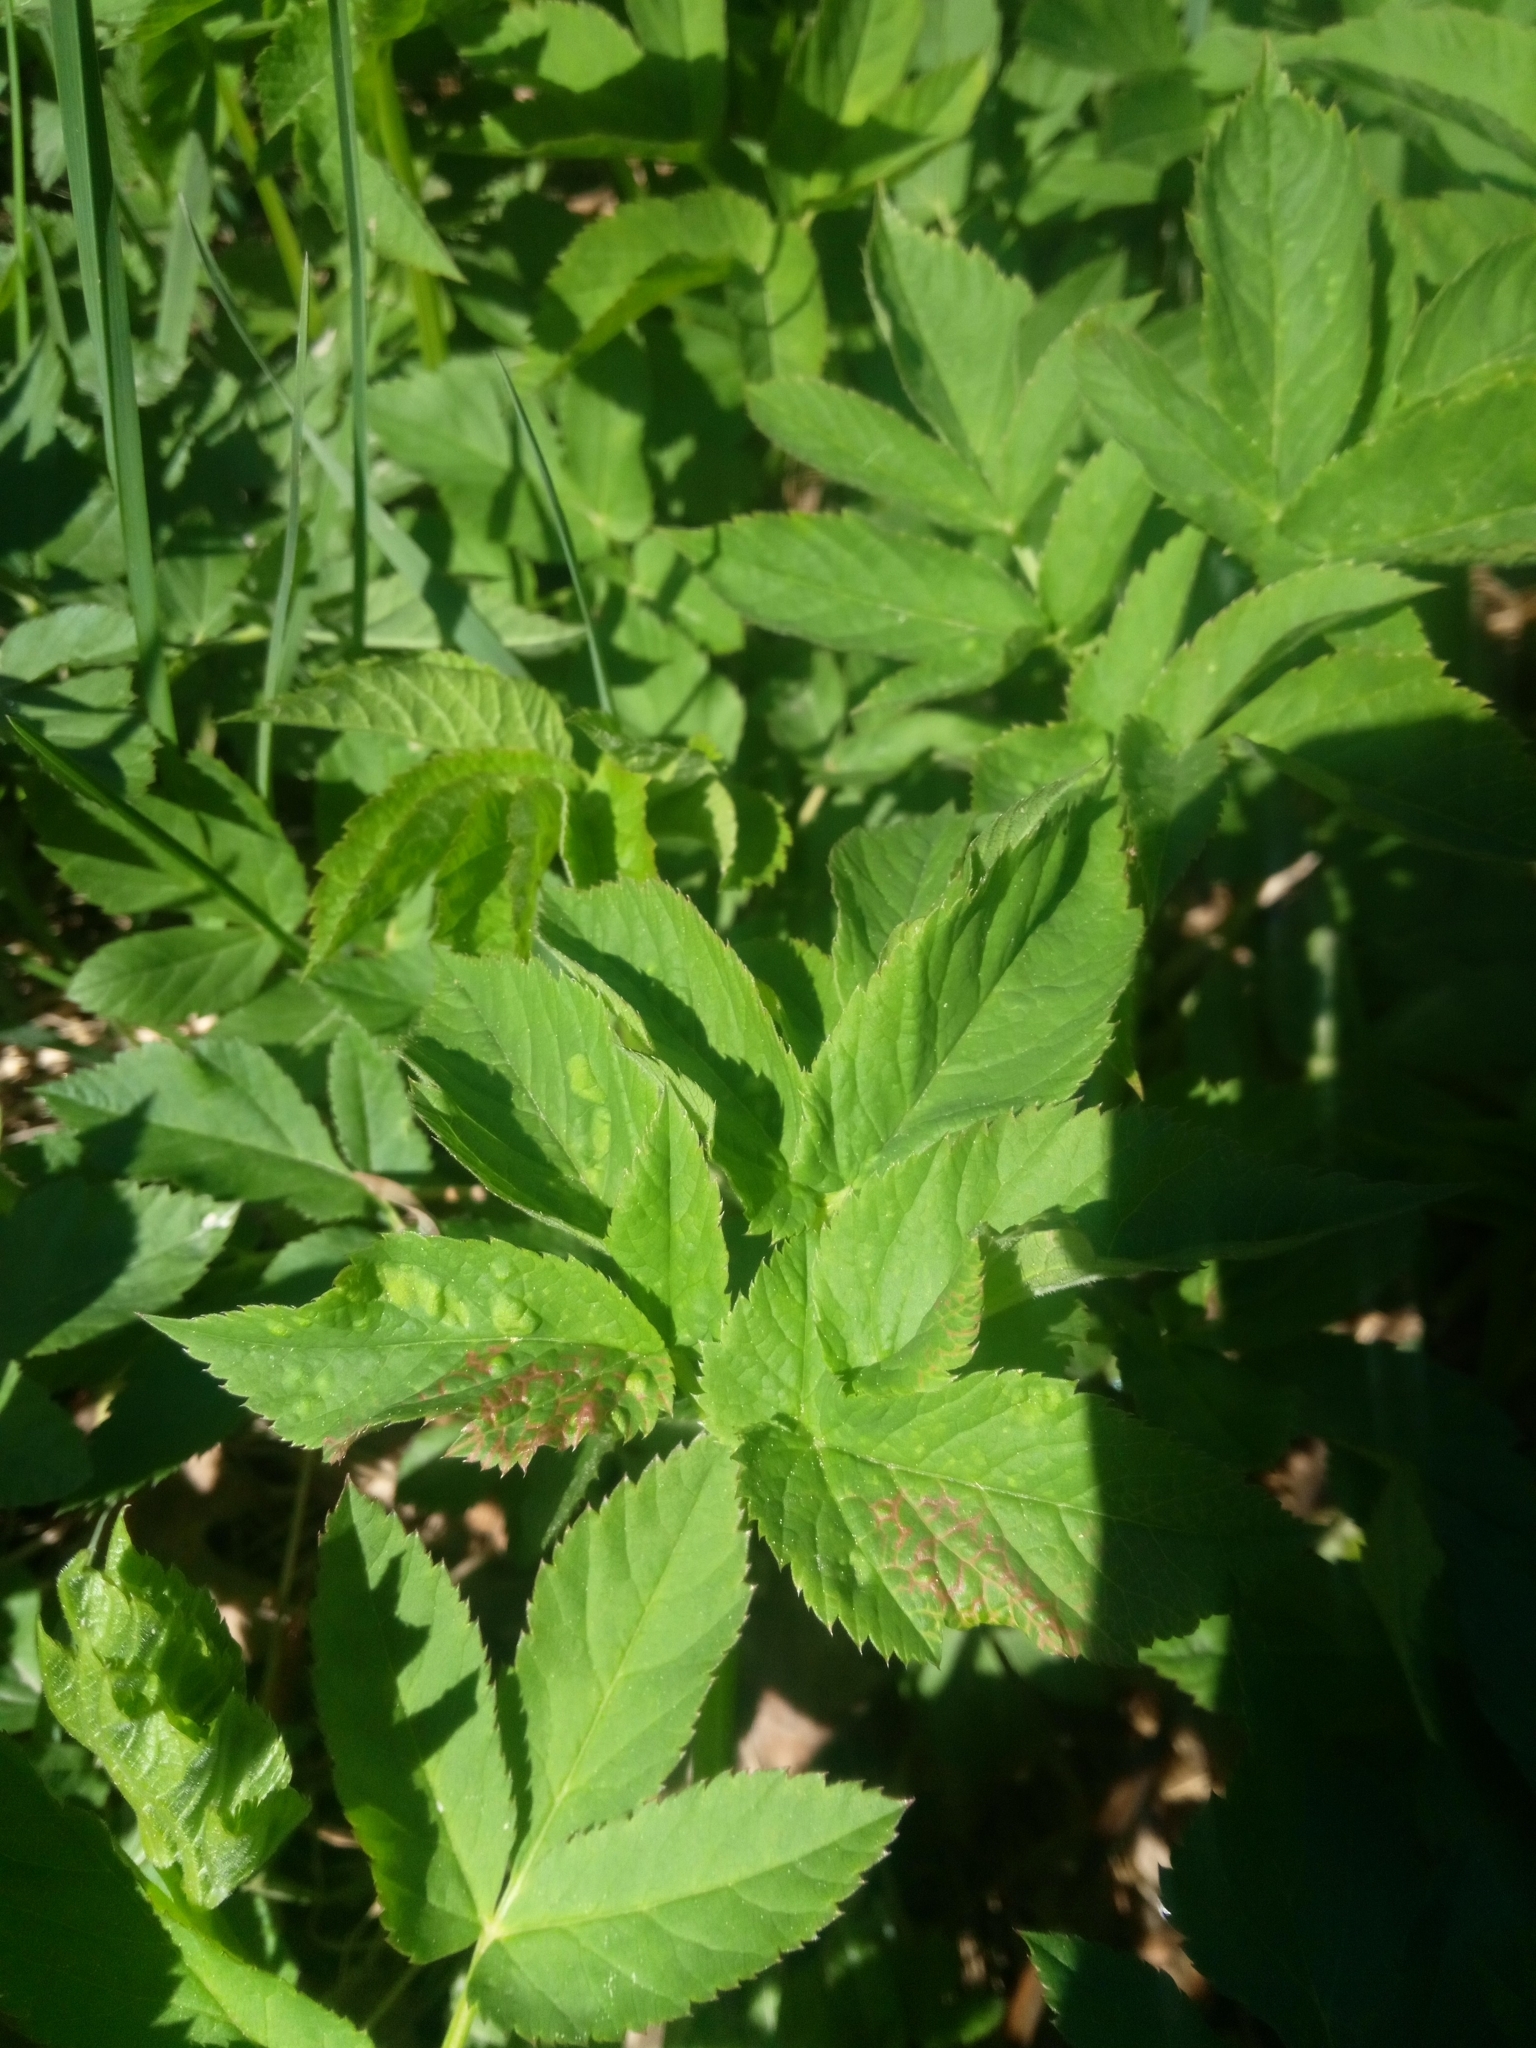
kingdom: Plantae
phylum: Tracheophyta
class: Magnoliopsida
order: Apiales
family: Apiaceae
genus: Aegopodium
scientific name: Aegopodium podagraria
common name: Ground-elder
